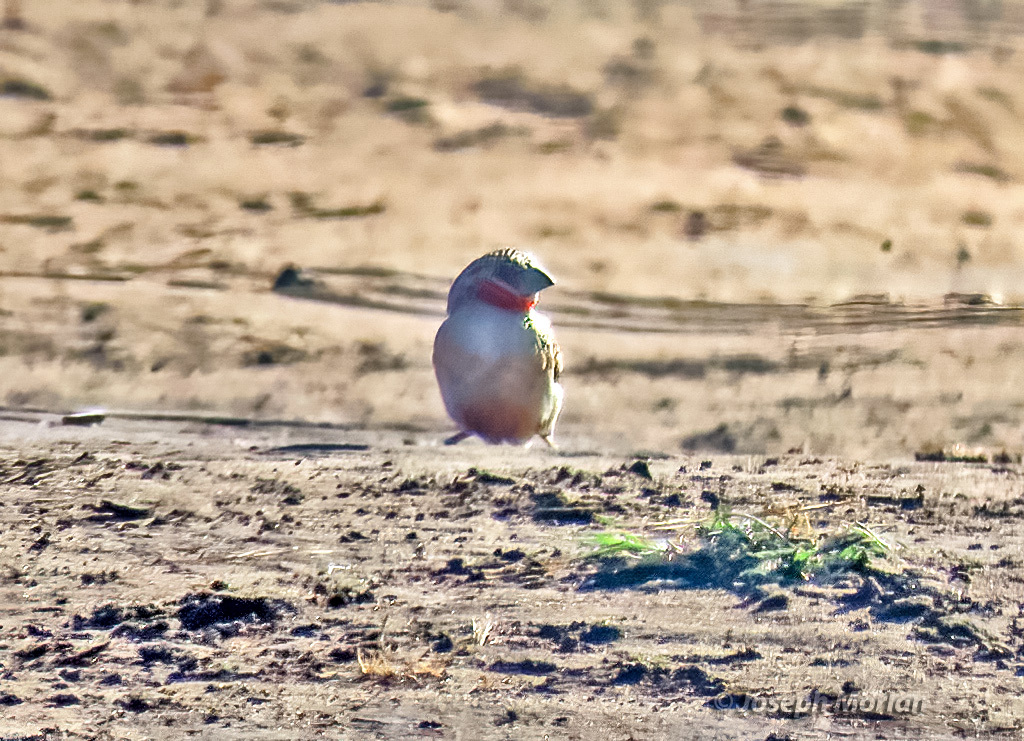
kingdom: Animalia
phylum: Chordata
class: Aves
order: Passeriformes
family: Estrildidae
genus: Amadina
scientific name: Amadina fasciata
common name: Cut-throat finch
